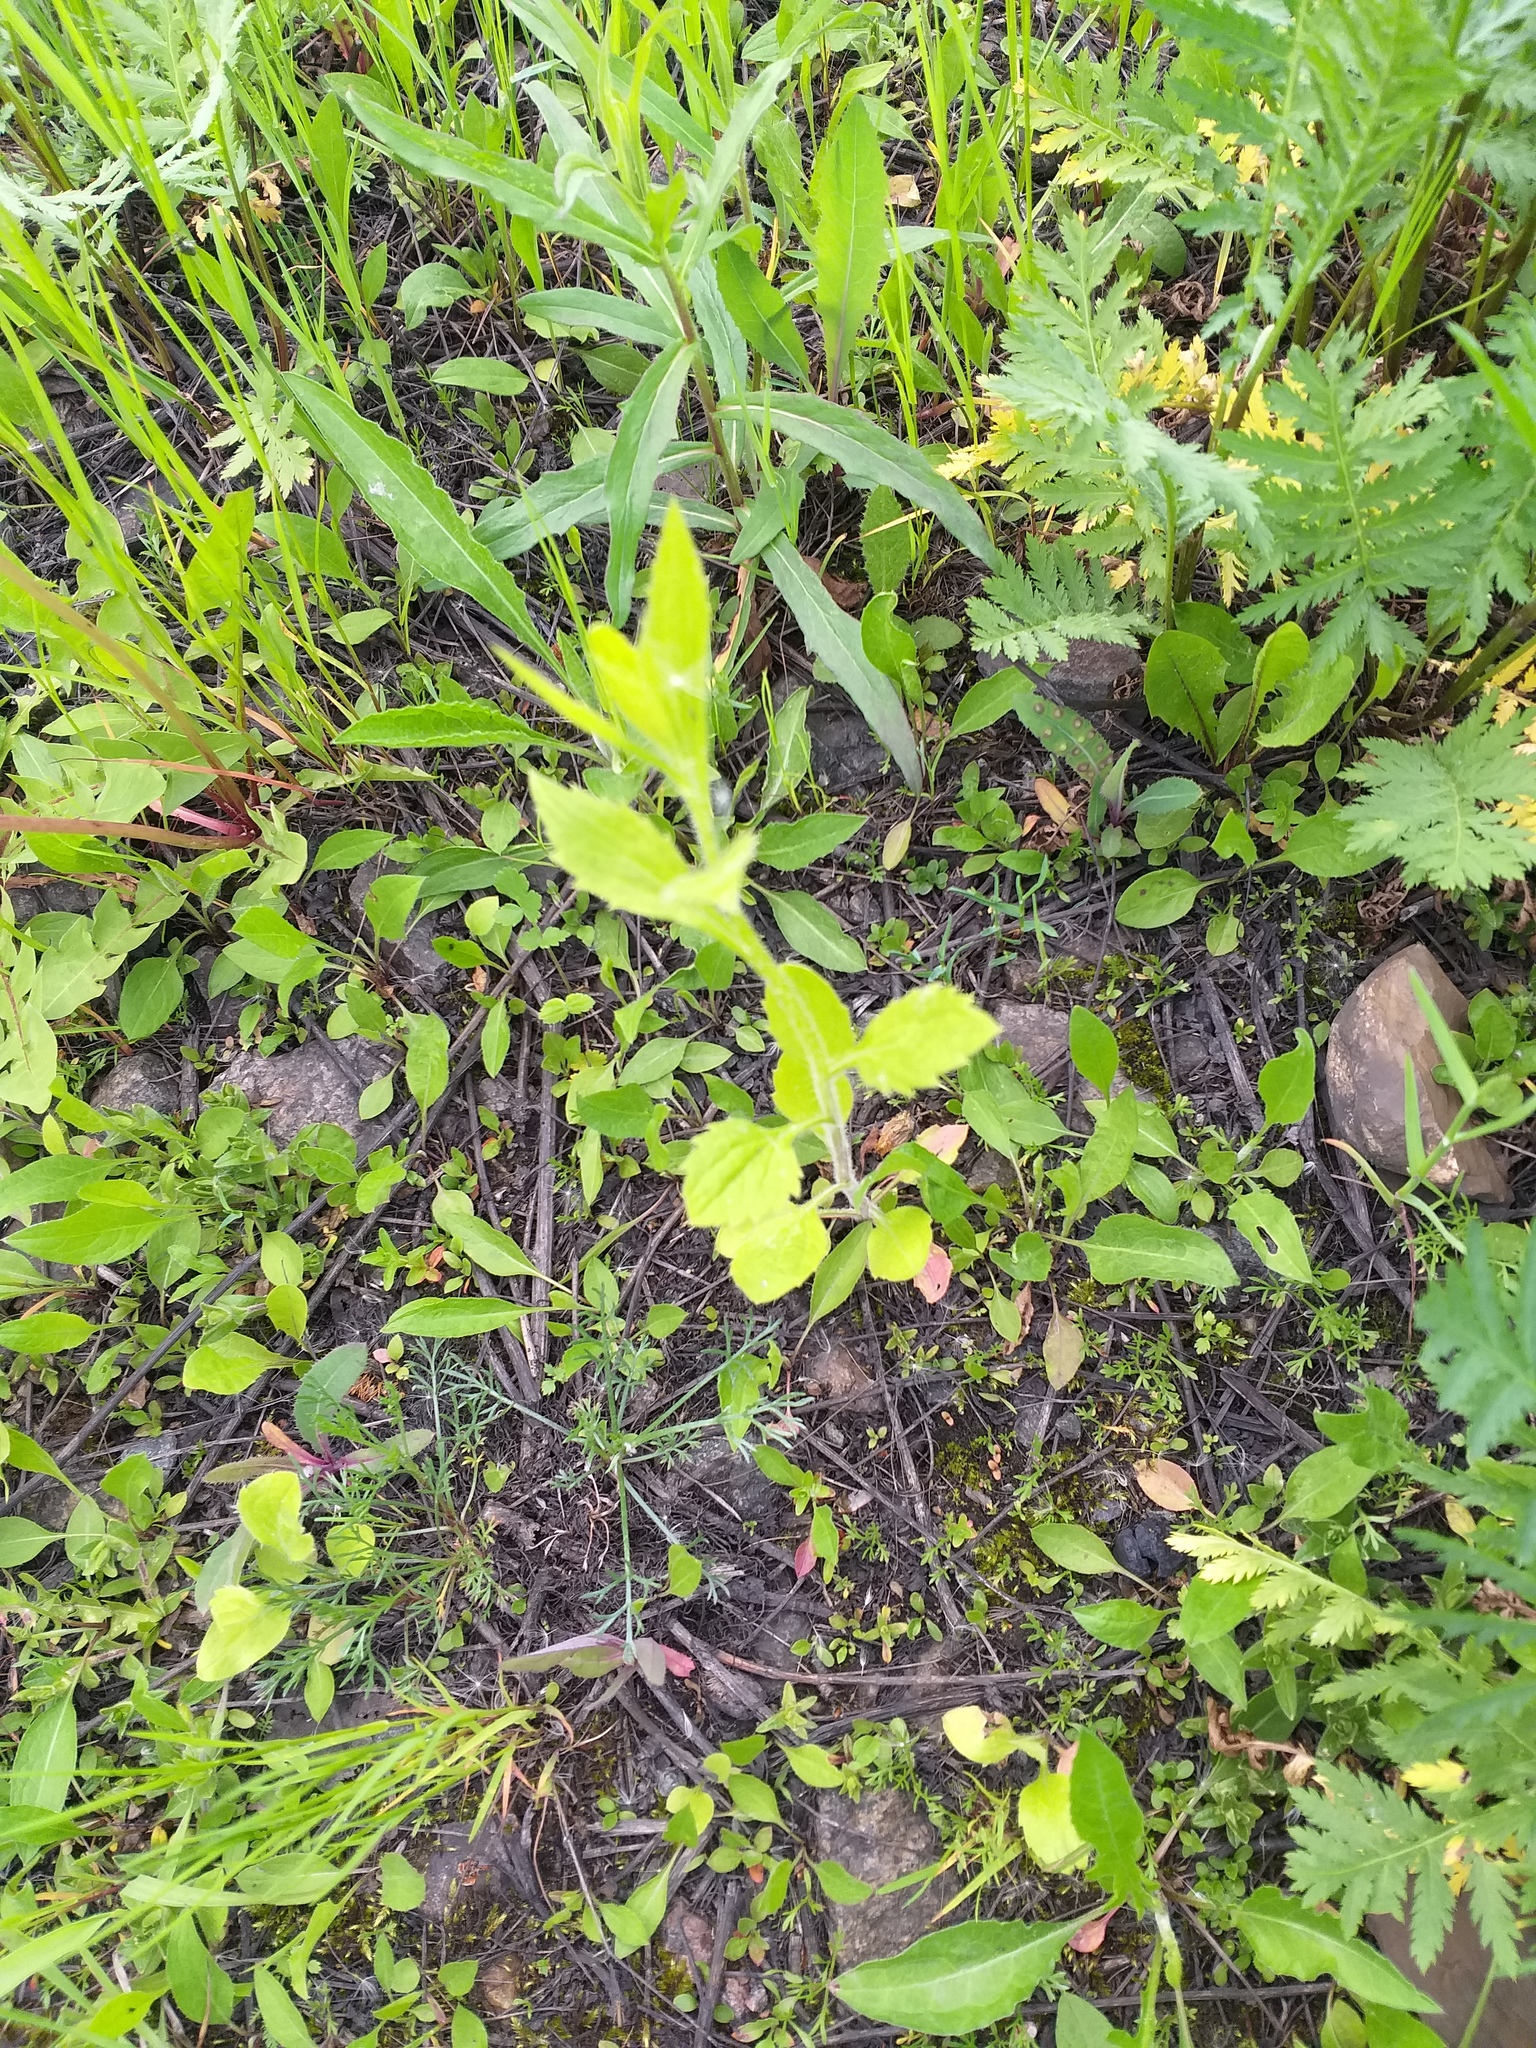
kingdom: Plantae
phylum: Tracheophyta
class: Magnoliopsida
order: Asterales
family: Asteraceae
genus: Erigeron
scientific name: Erigeron annuus
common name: Tall fleabane
